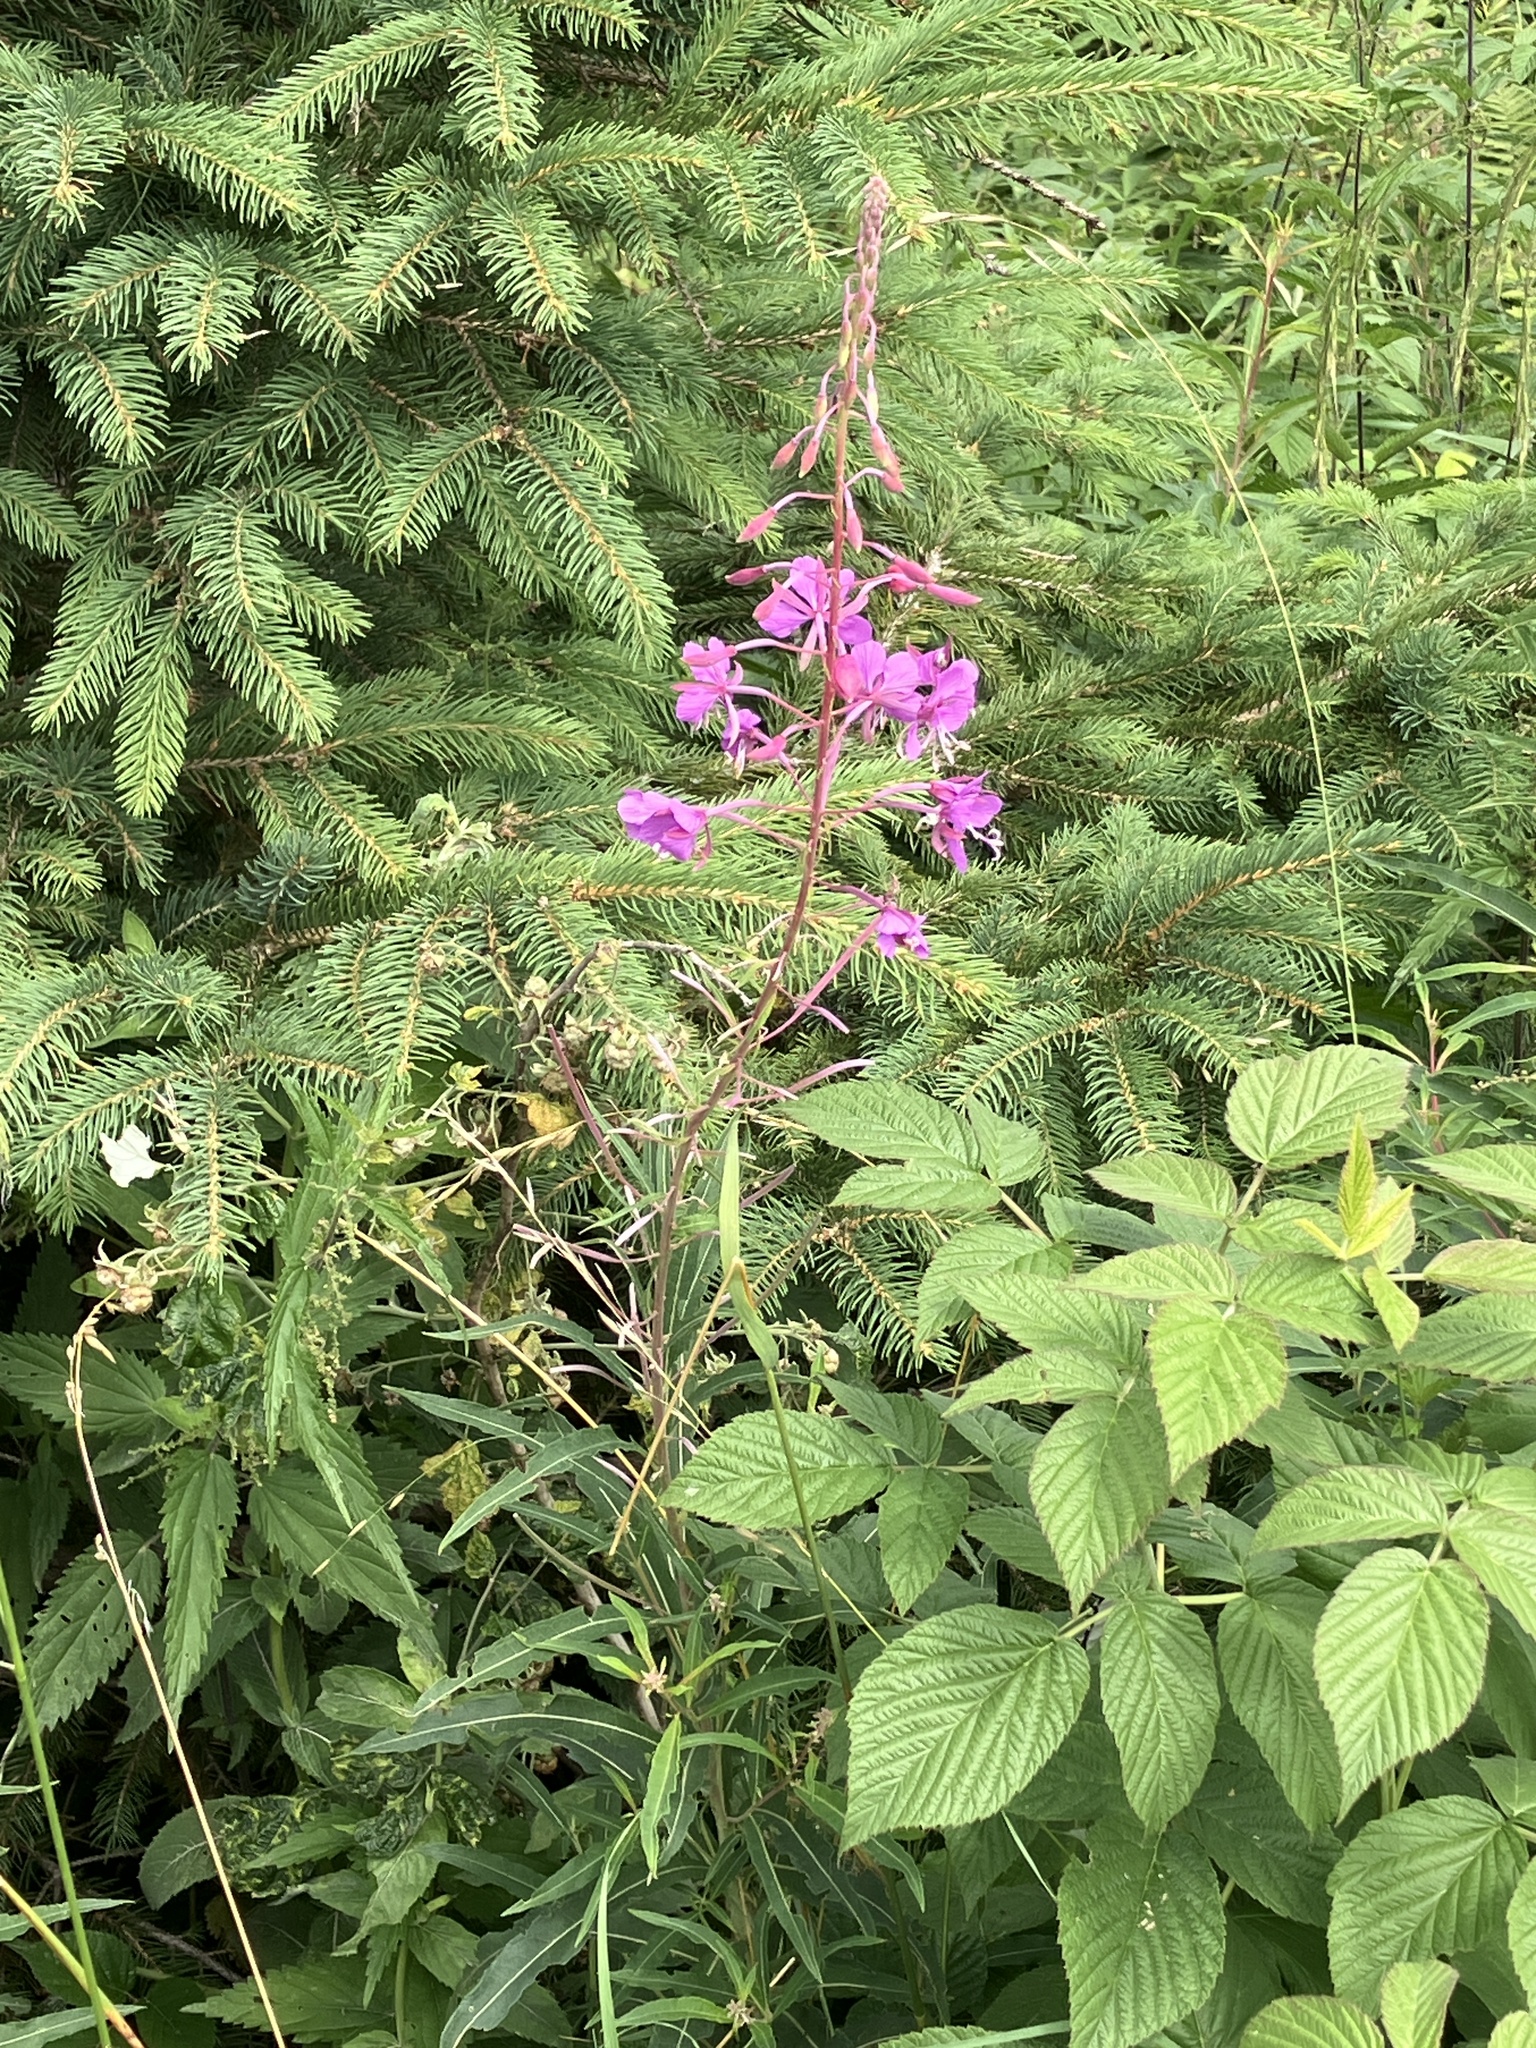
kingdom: Plantae
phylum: Tracheophyta
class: Magnoliopsida
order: Myrtales
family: Onagraceae
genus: Chamaenerion
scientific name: Chamaenerion angustifolium
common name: Fireweed
